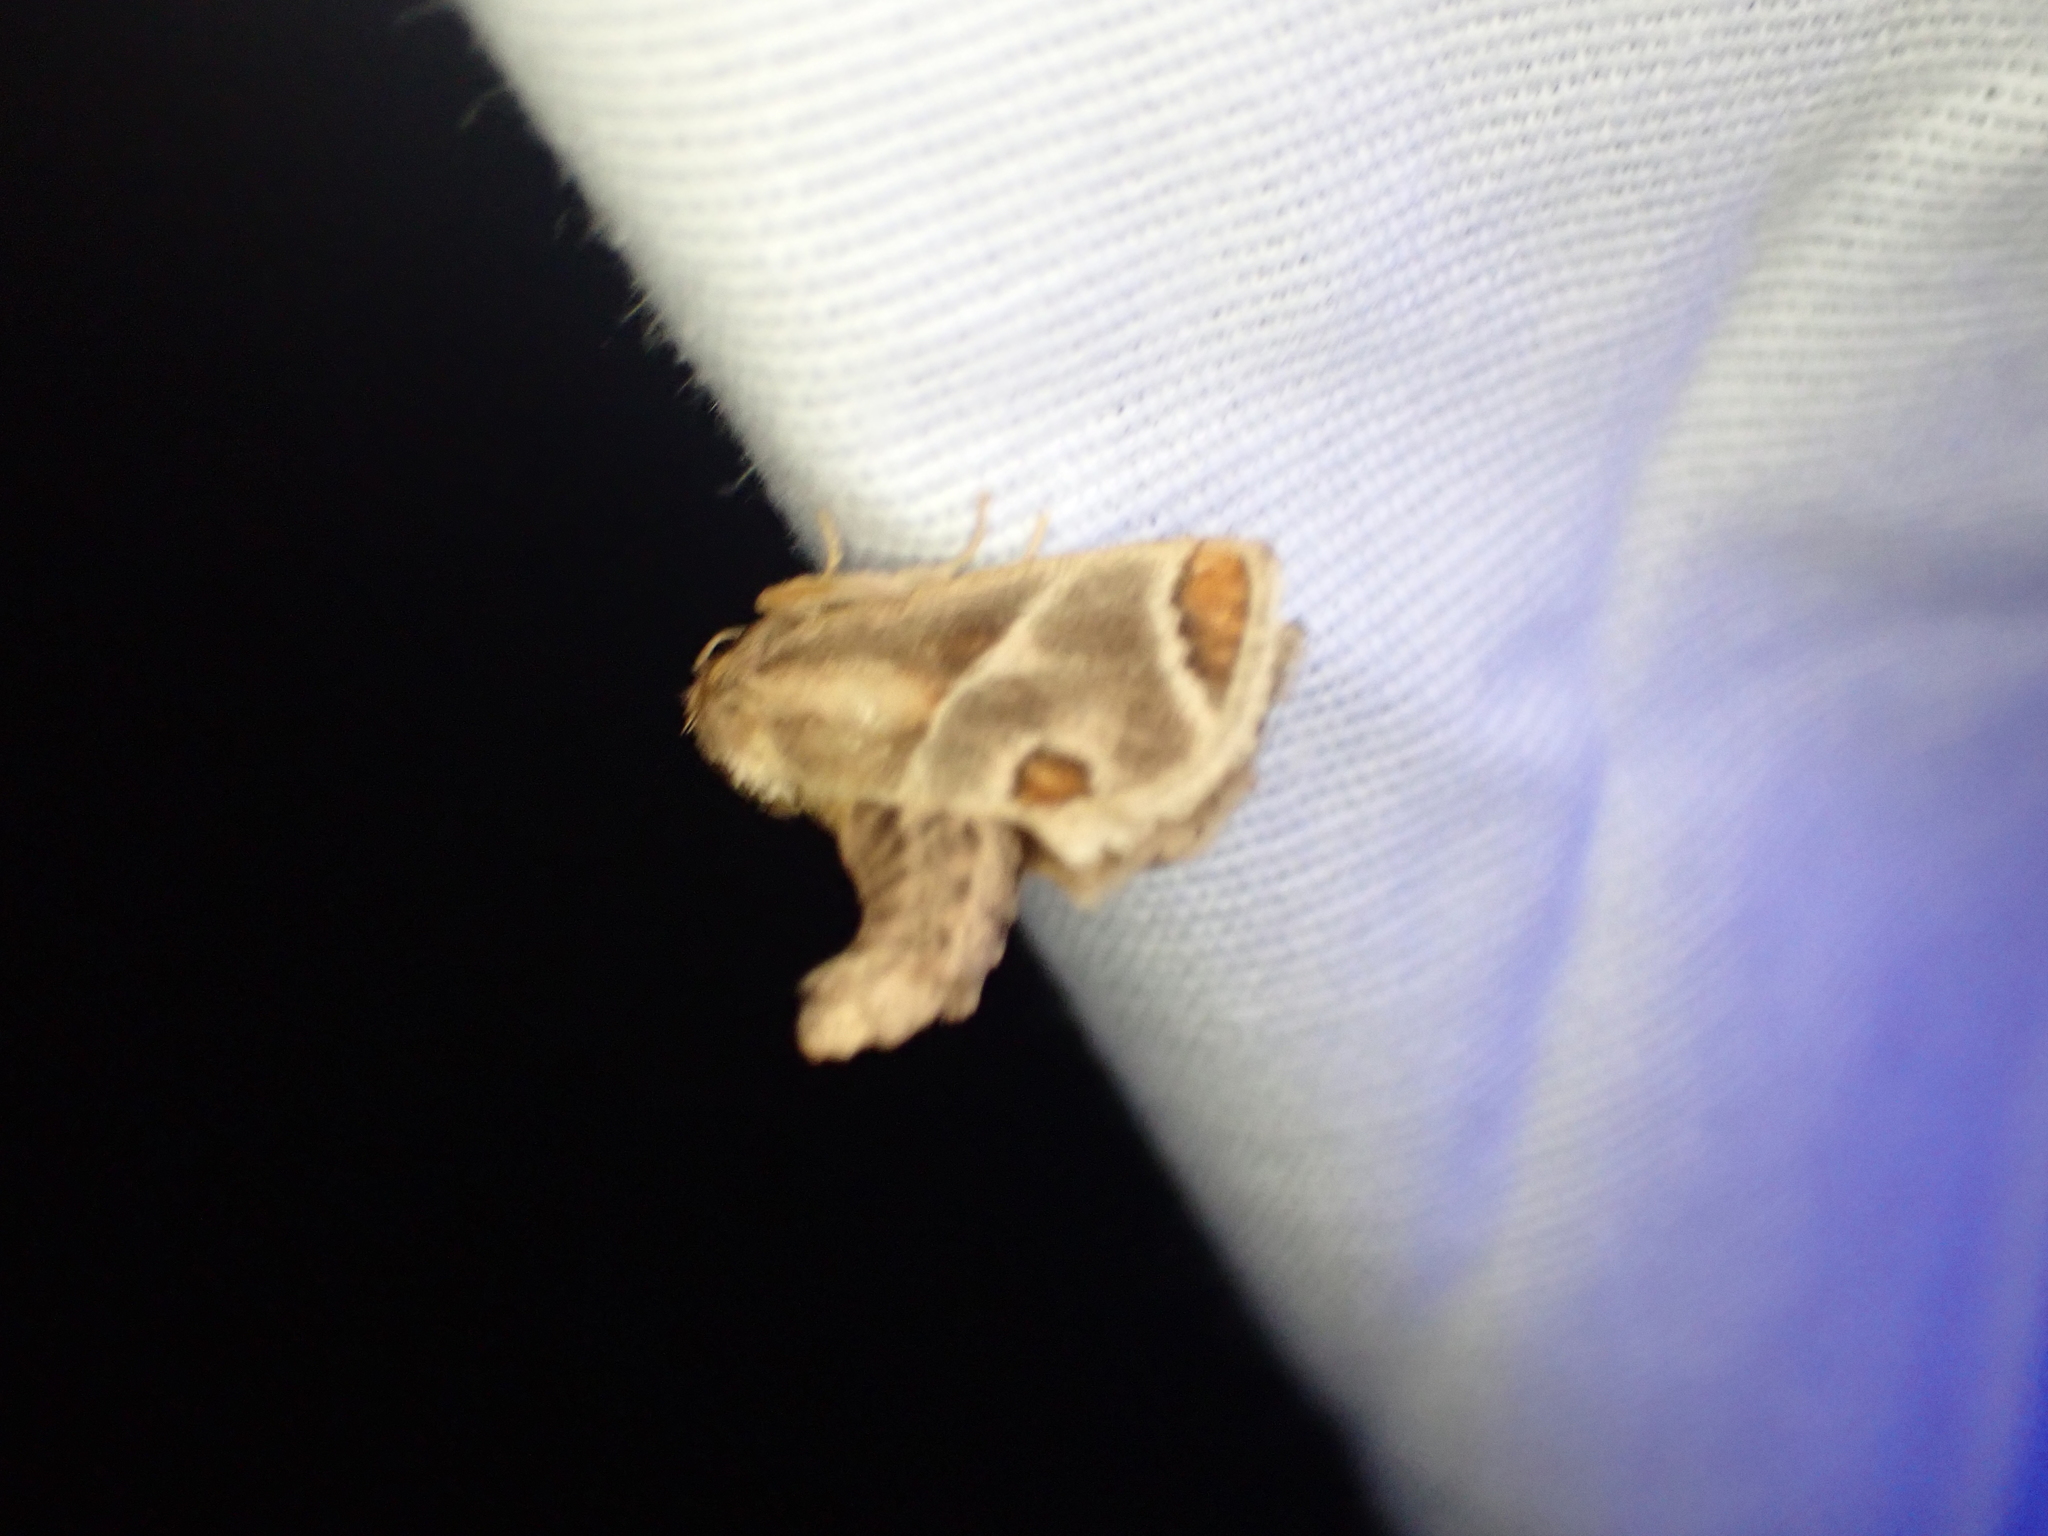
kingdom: Animalia
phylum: Arthropoda
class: Insecta
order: Lepidoptera
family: Limacodidae
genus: Apoda
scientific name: Apoda biguttata
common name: Shagreened slug moth
